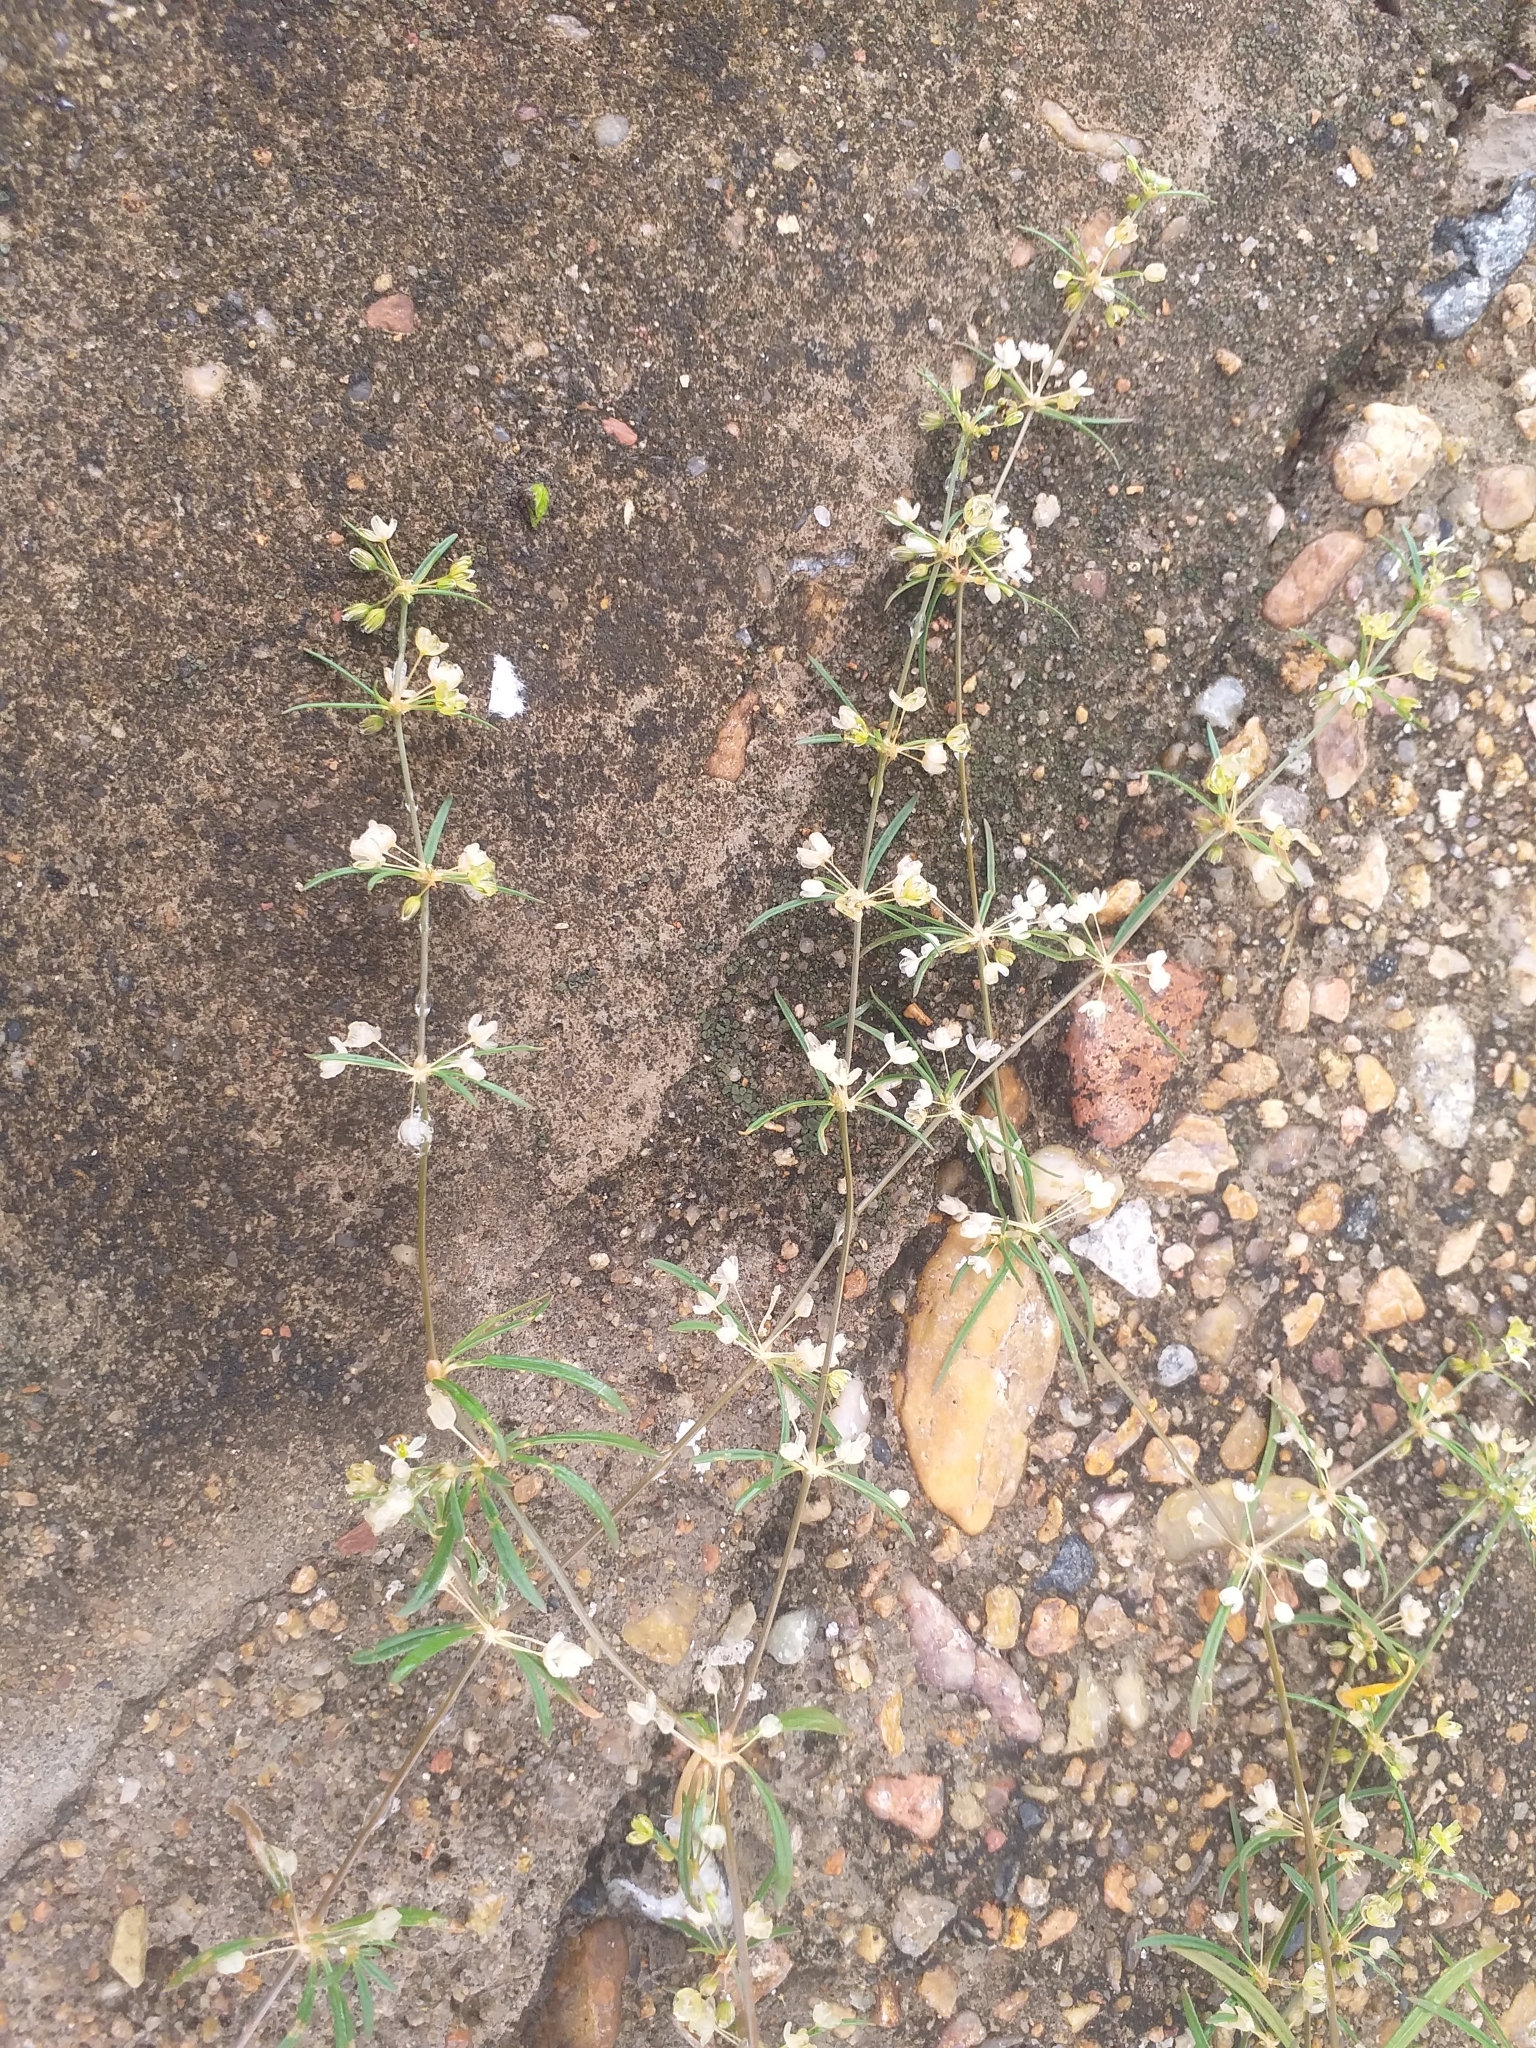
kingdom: Plantae
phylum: Tracheophyta
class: Magnoliopsida
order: Caryophyllales
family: Molluginaceae
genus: Mollugo
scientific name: Mollugo verticillata
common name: Green carpetweed
